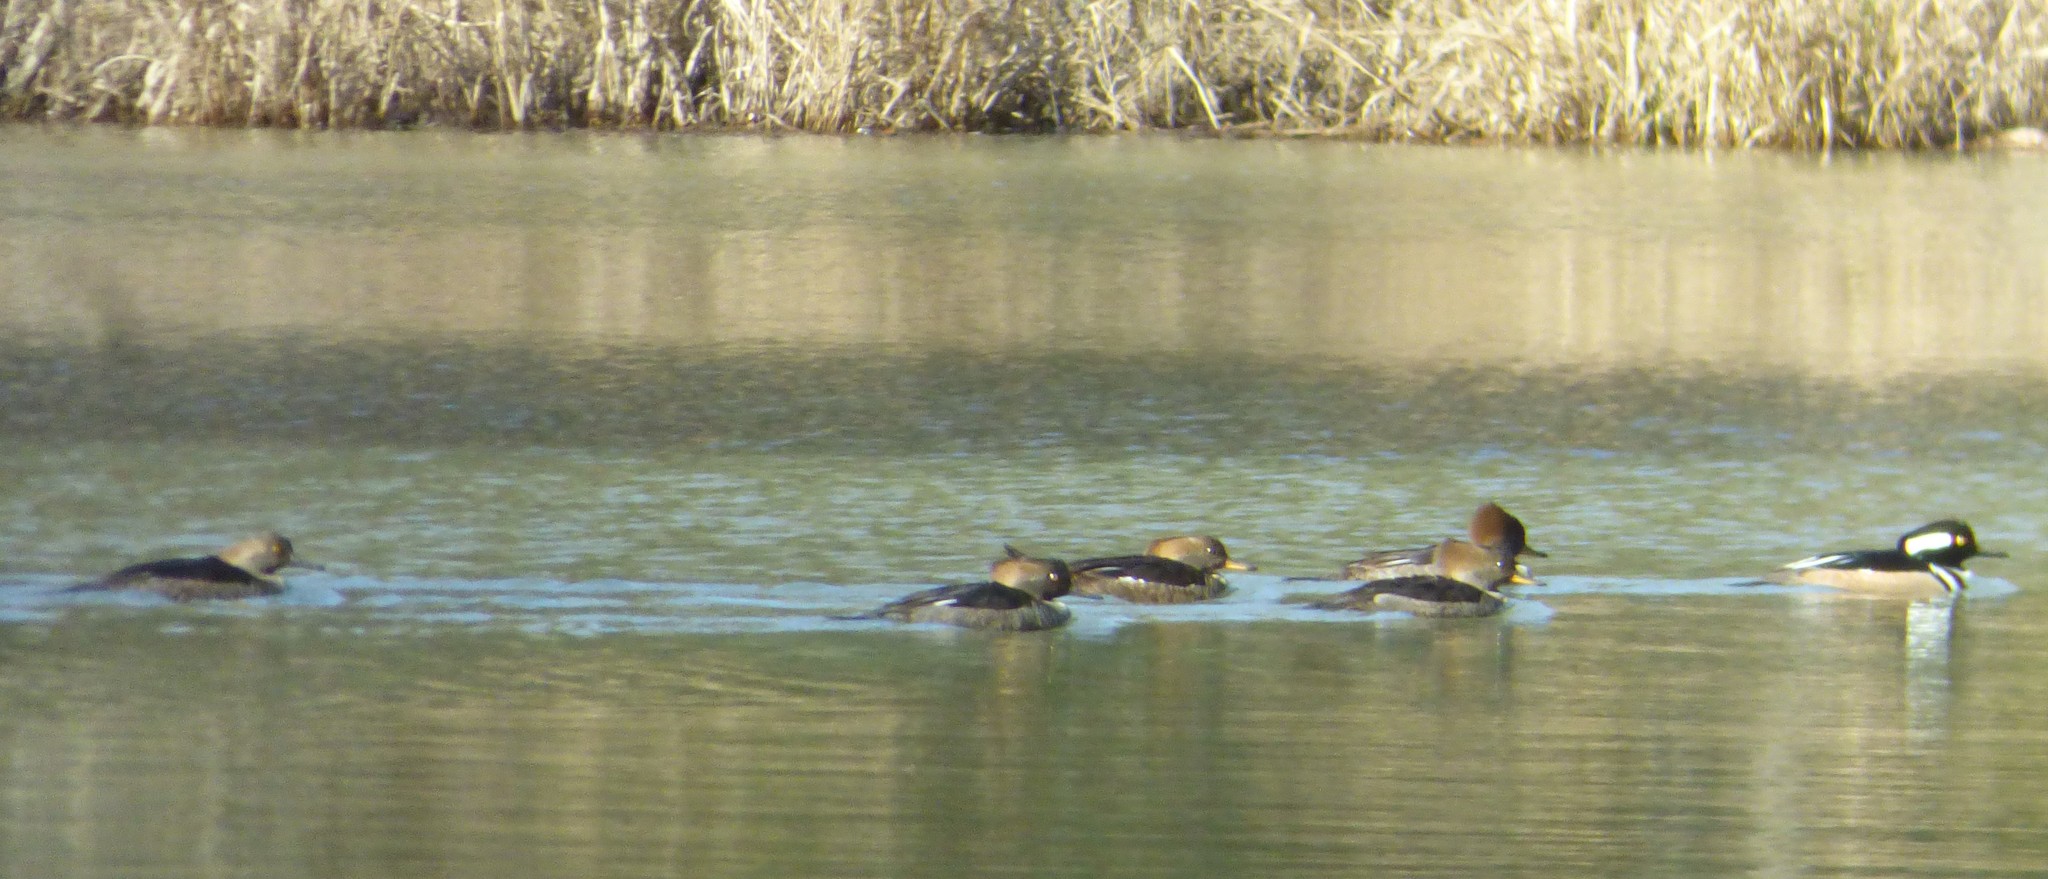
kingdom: Animalia
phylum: Chordata
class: Aves
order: Anseriformes
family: Anatidae
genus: Lophodytes
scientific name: Lophodytes cucullatus
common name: Hooded merganser
